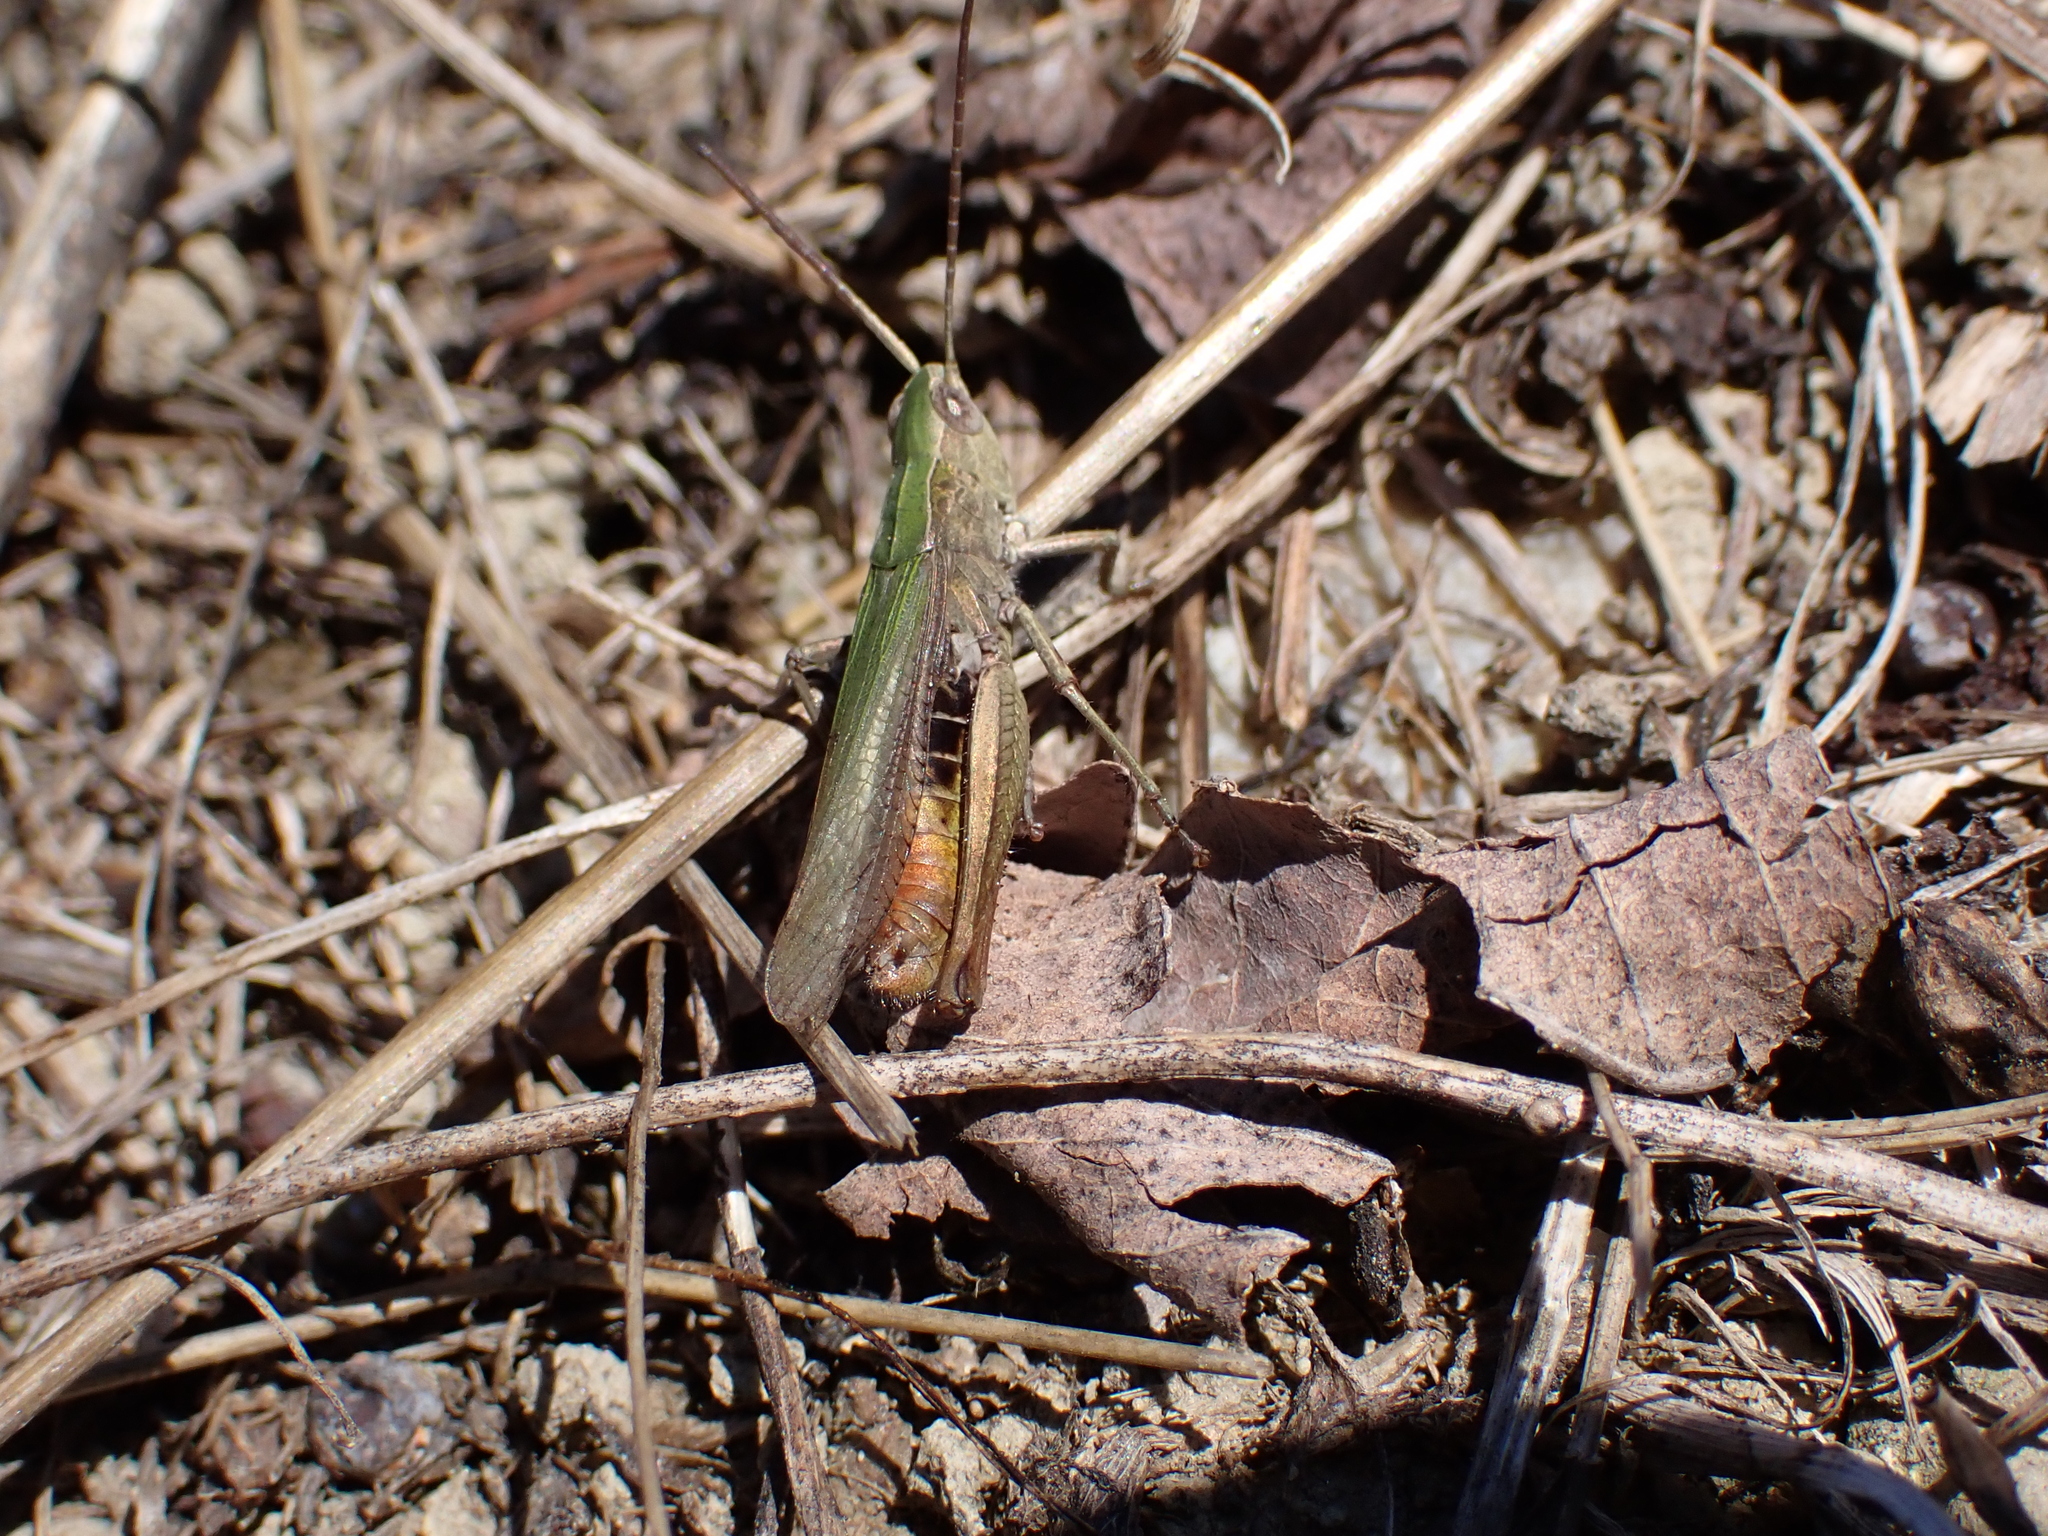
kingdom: Animalia
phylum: Arthropoda
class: Insecta
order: Orthoptera
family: Acrididae
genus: Chorthippus
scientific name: Chorthippus dorsatus
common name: Steppe grasshopper
